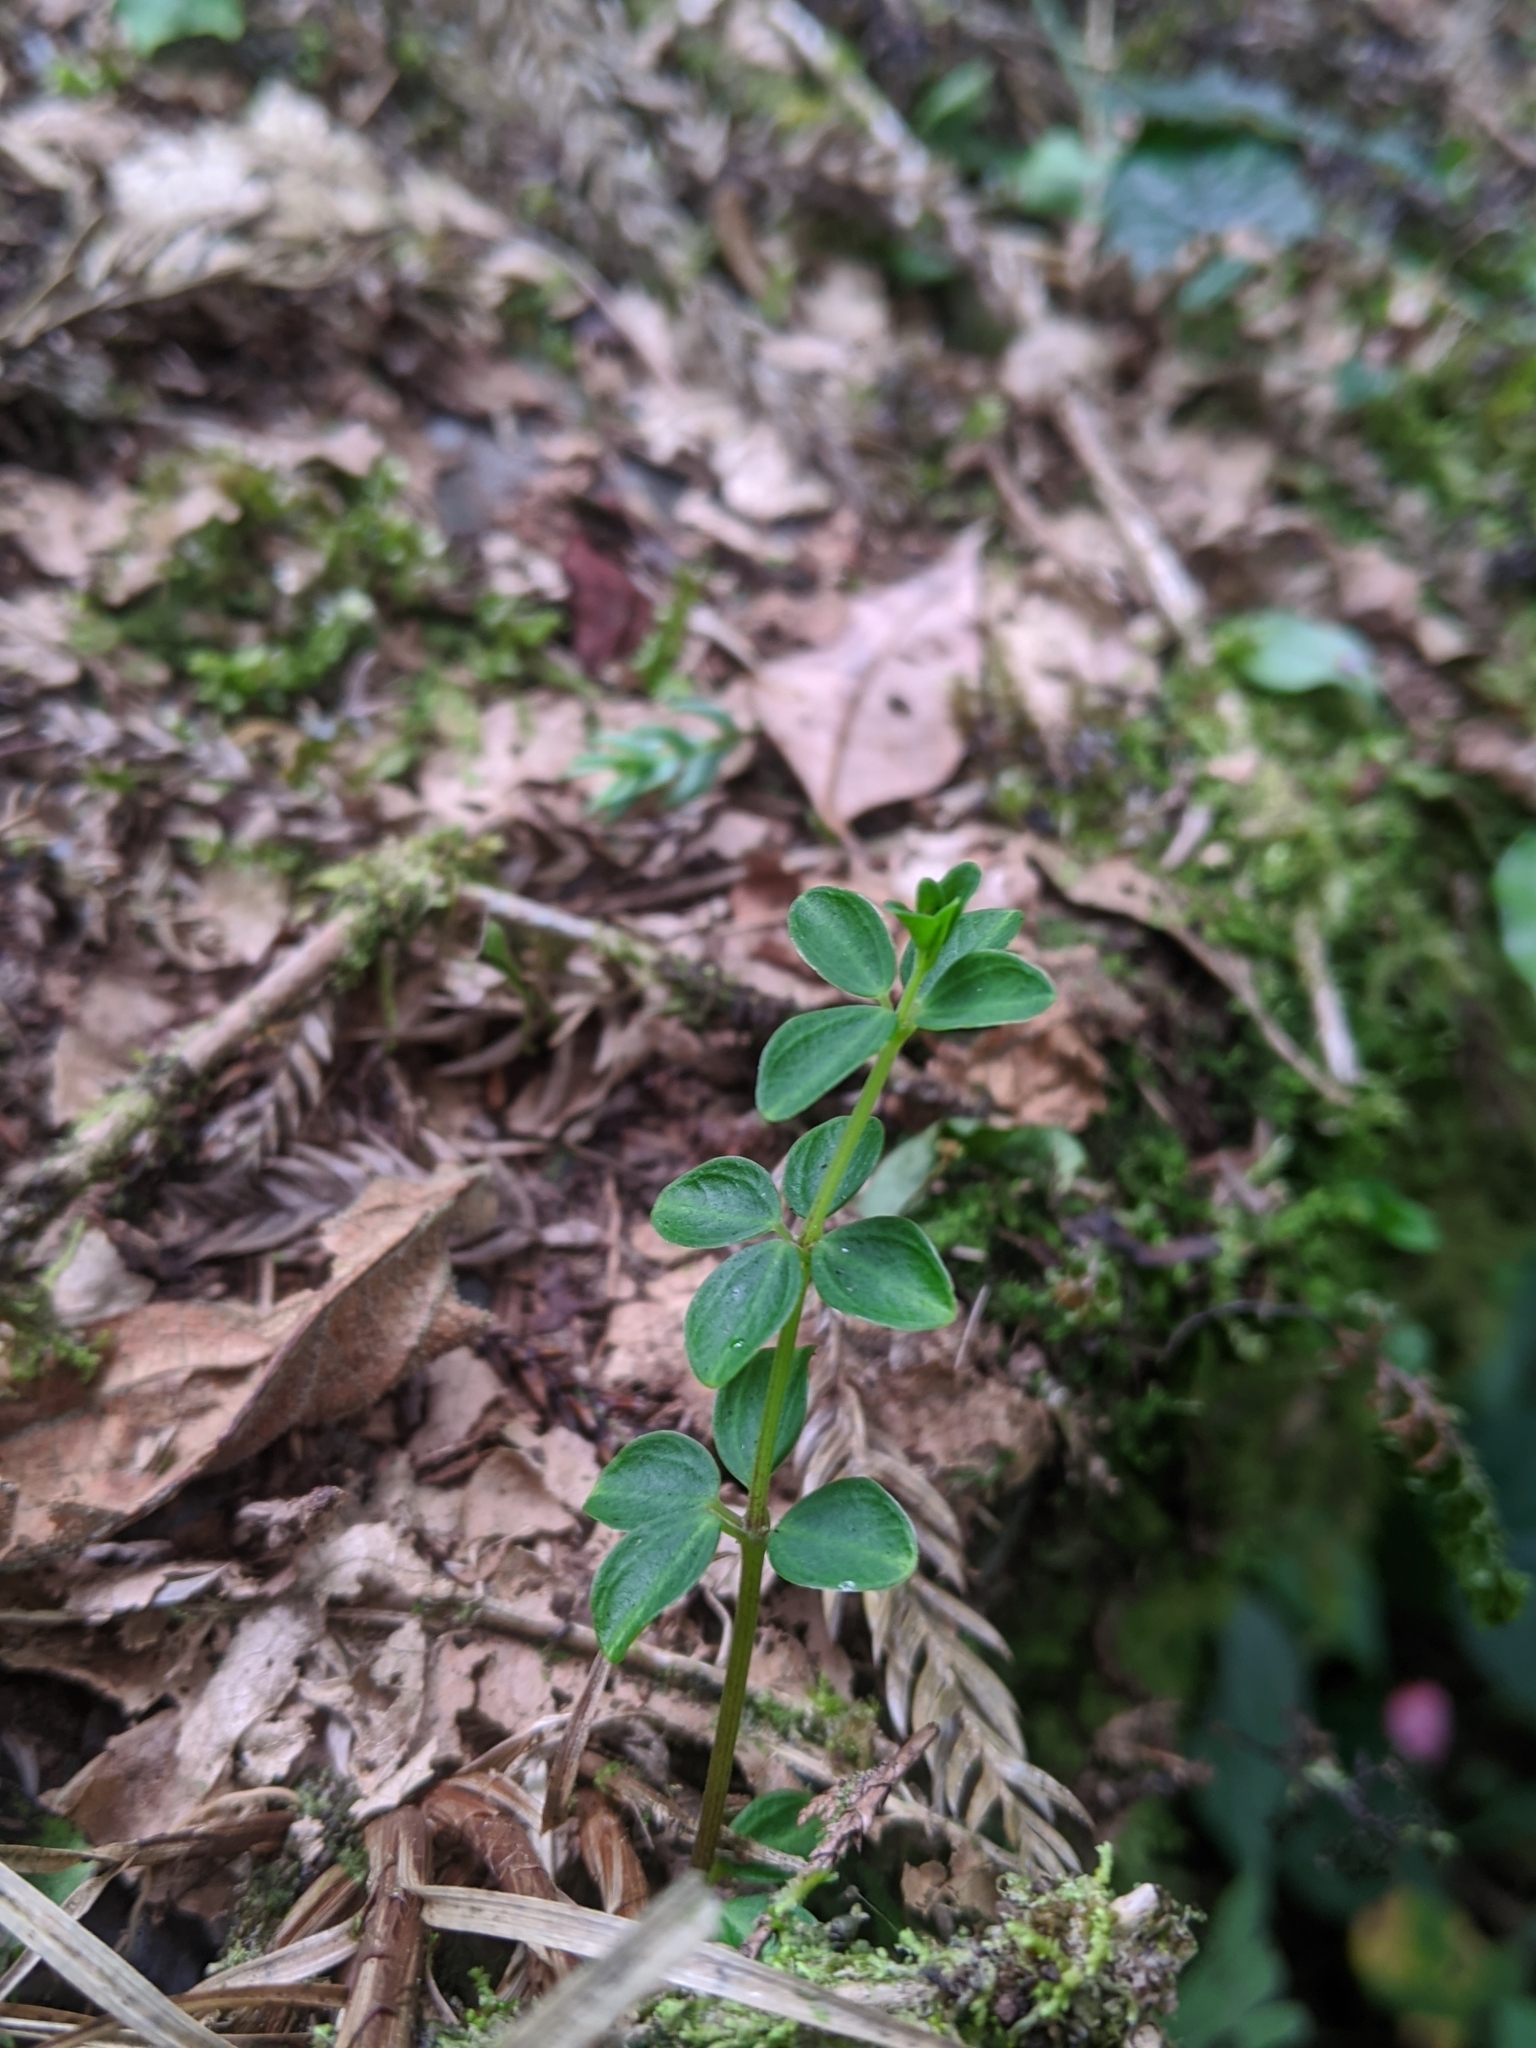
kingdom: Plantae
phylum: Tracheophyta
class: Magnoliopsida
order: Gentianales
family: Rubiaceae
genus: Galium
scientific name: Galium formosense
